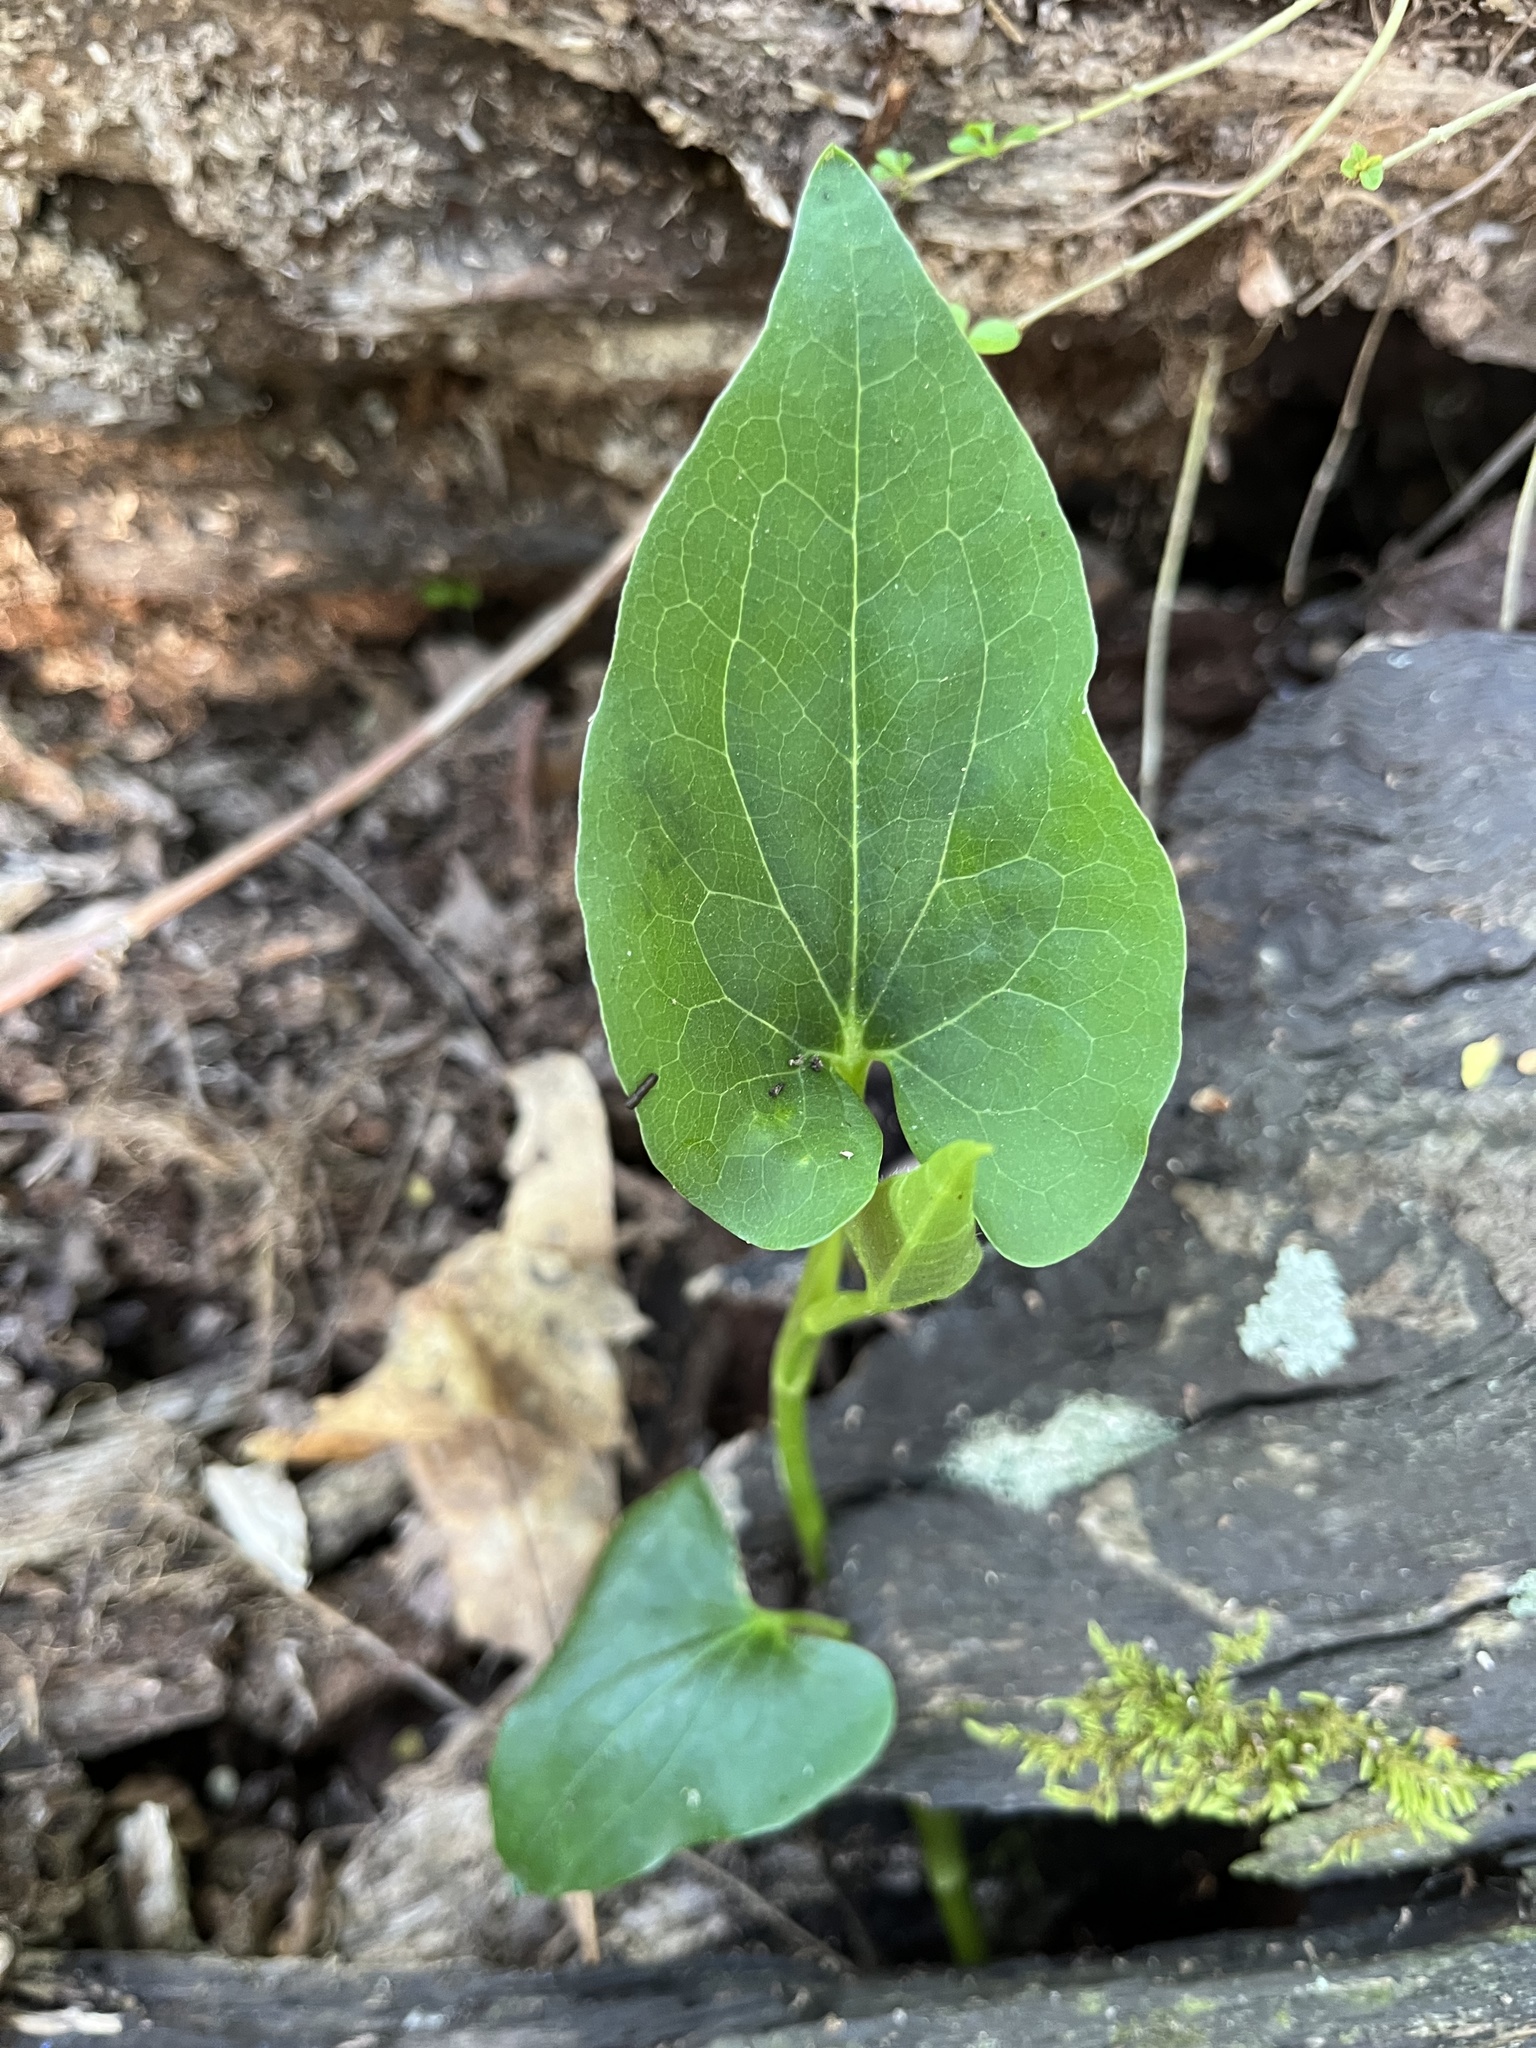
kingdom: Plantae
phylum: Tracheophyta
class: Magnoliopsida
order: Piperales
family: Saururaceae
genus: Saururus
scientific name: Saururus cernuus
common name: Lizard's-tail
